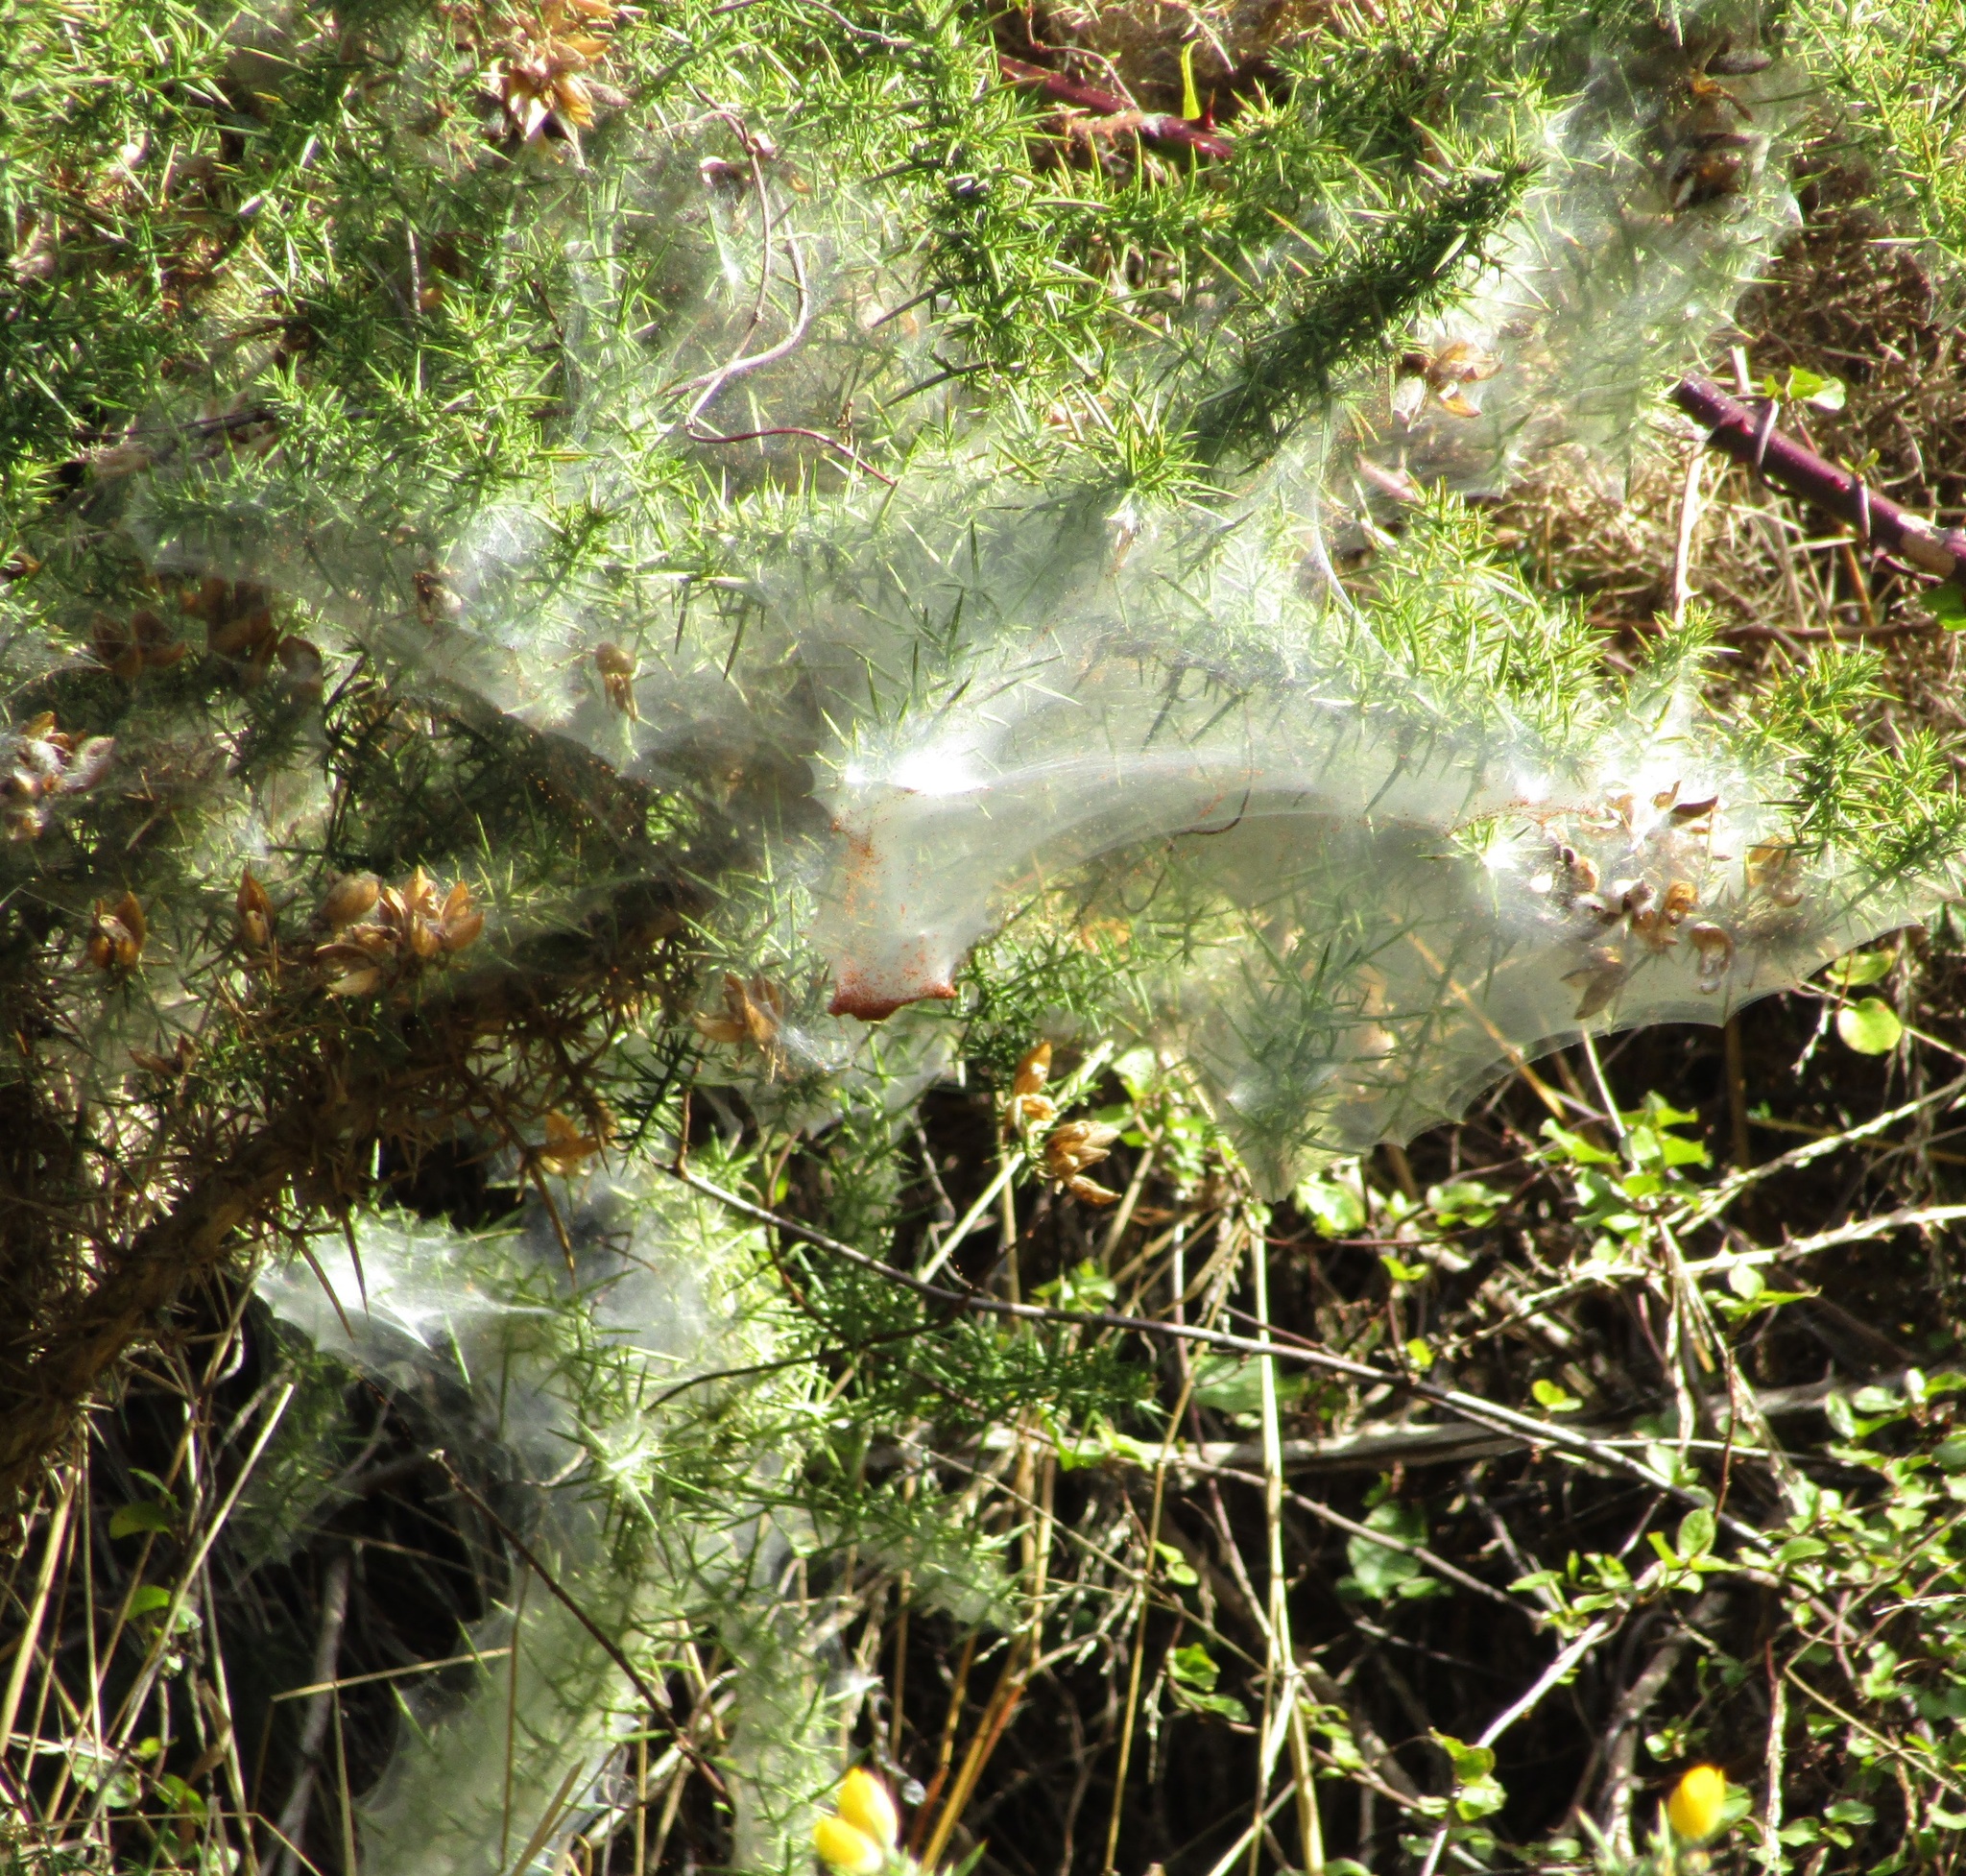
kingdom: Animalia
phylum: Arthropoda
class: Arachnida
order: Trombidiformes
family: Tetranychidae
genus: Tetranychus
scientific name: Tetranychus lintearius
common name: Gorse spider mite
